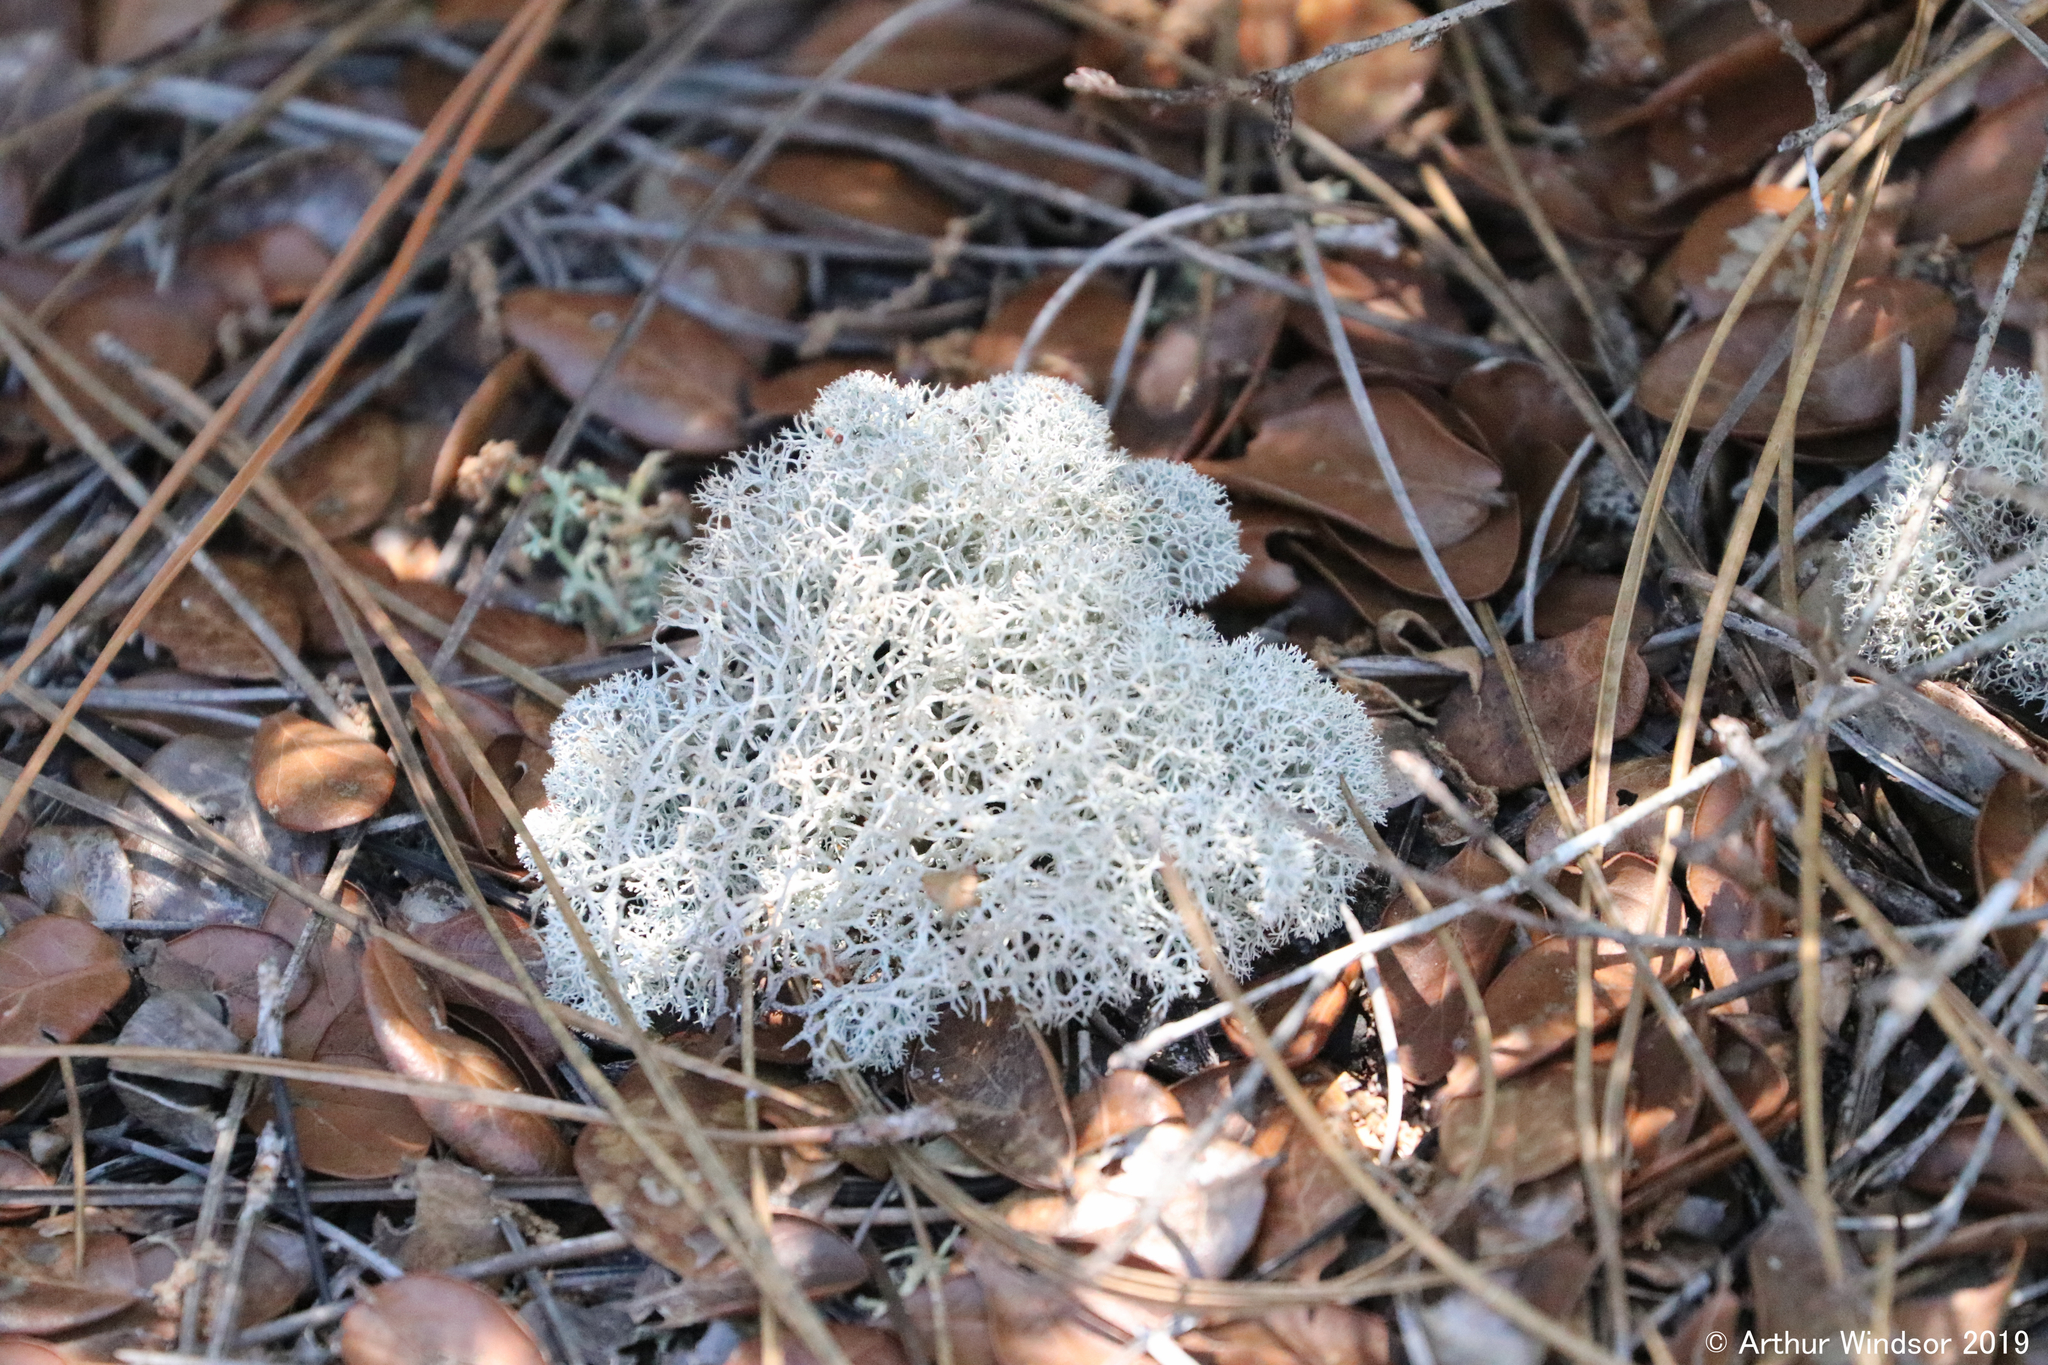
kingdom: Fungi
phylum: Ascomycota
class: Lecanoromycetes
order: Lecanorales
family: Cladoniaceae
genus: Cladonia
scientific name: Cladonia evansii
